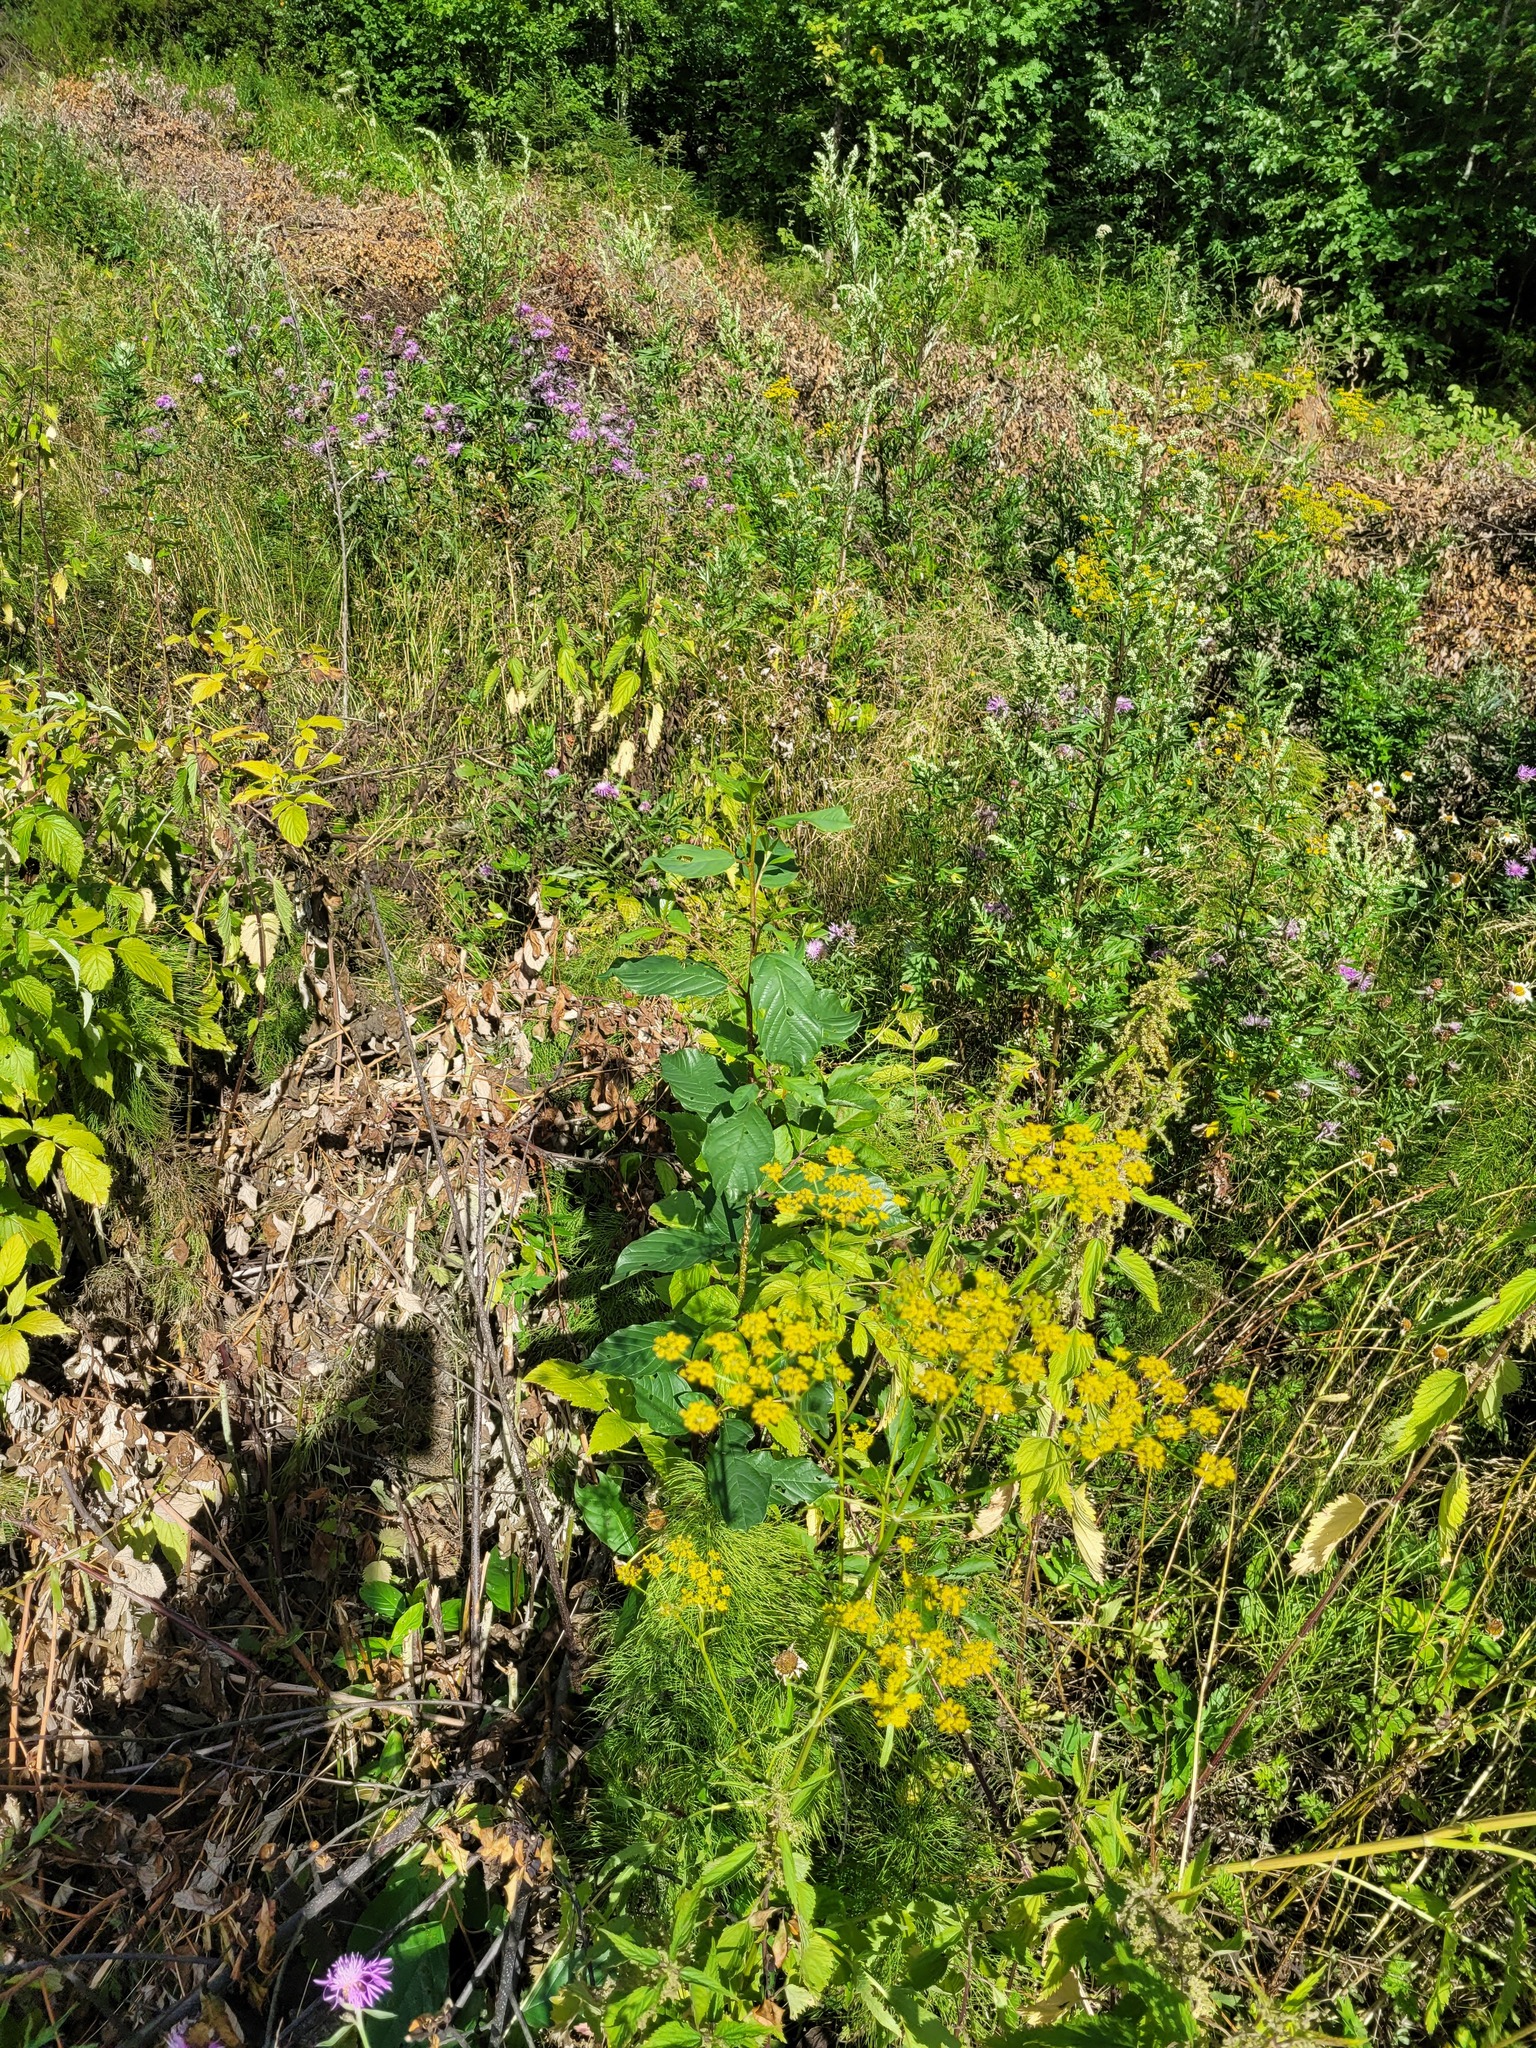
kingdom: Plantae
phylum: Tracheophyta
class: Magnoliopsida
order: Apiales
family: Apiaceae
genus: Pastinaca
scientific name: Pastinaca sativa
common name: Wild parsnip
